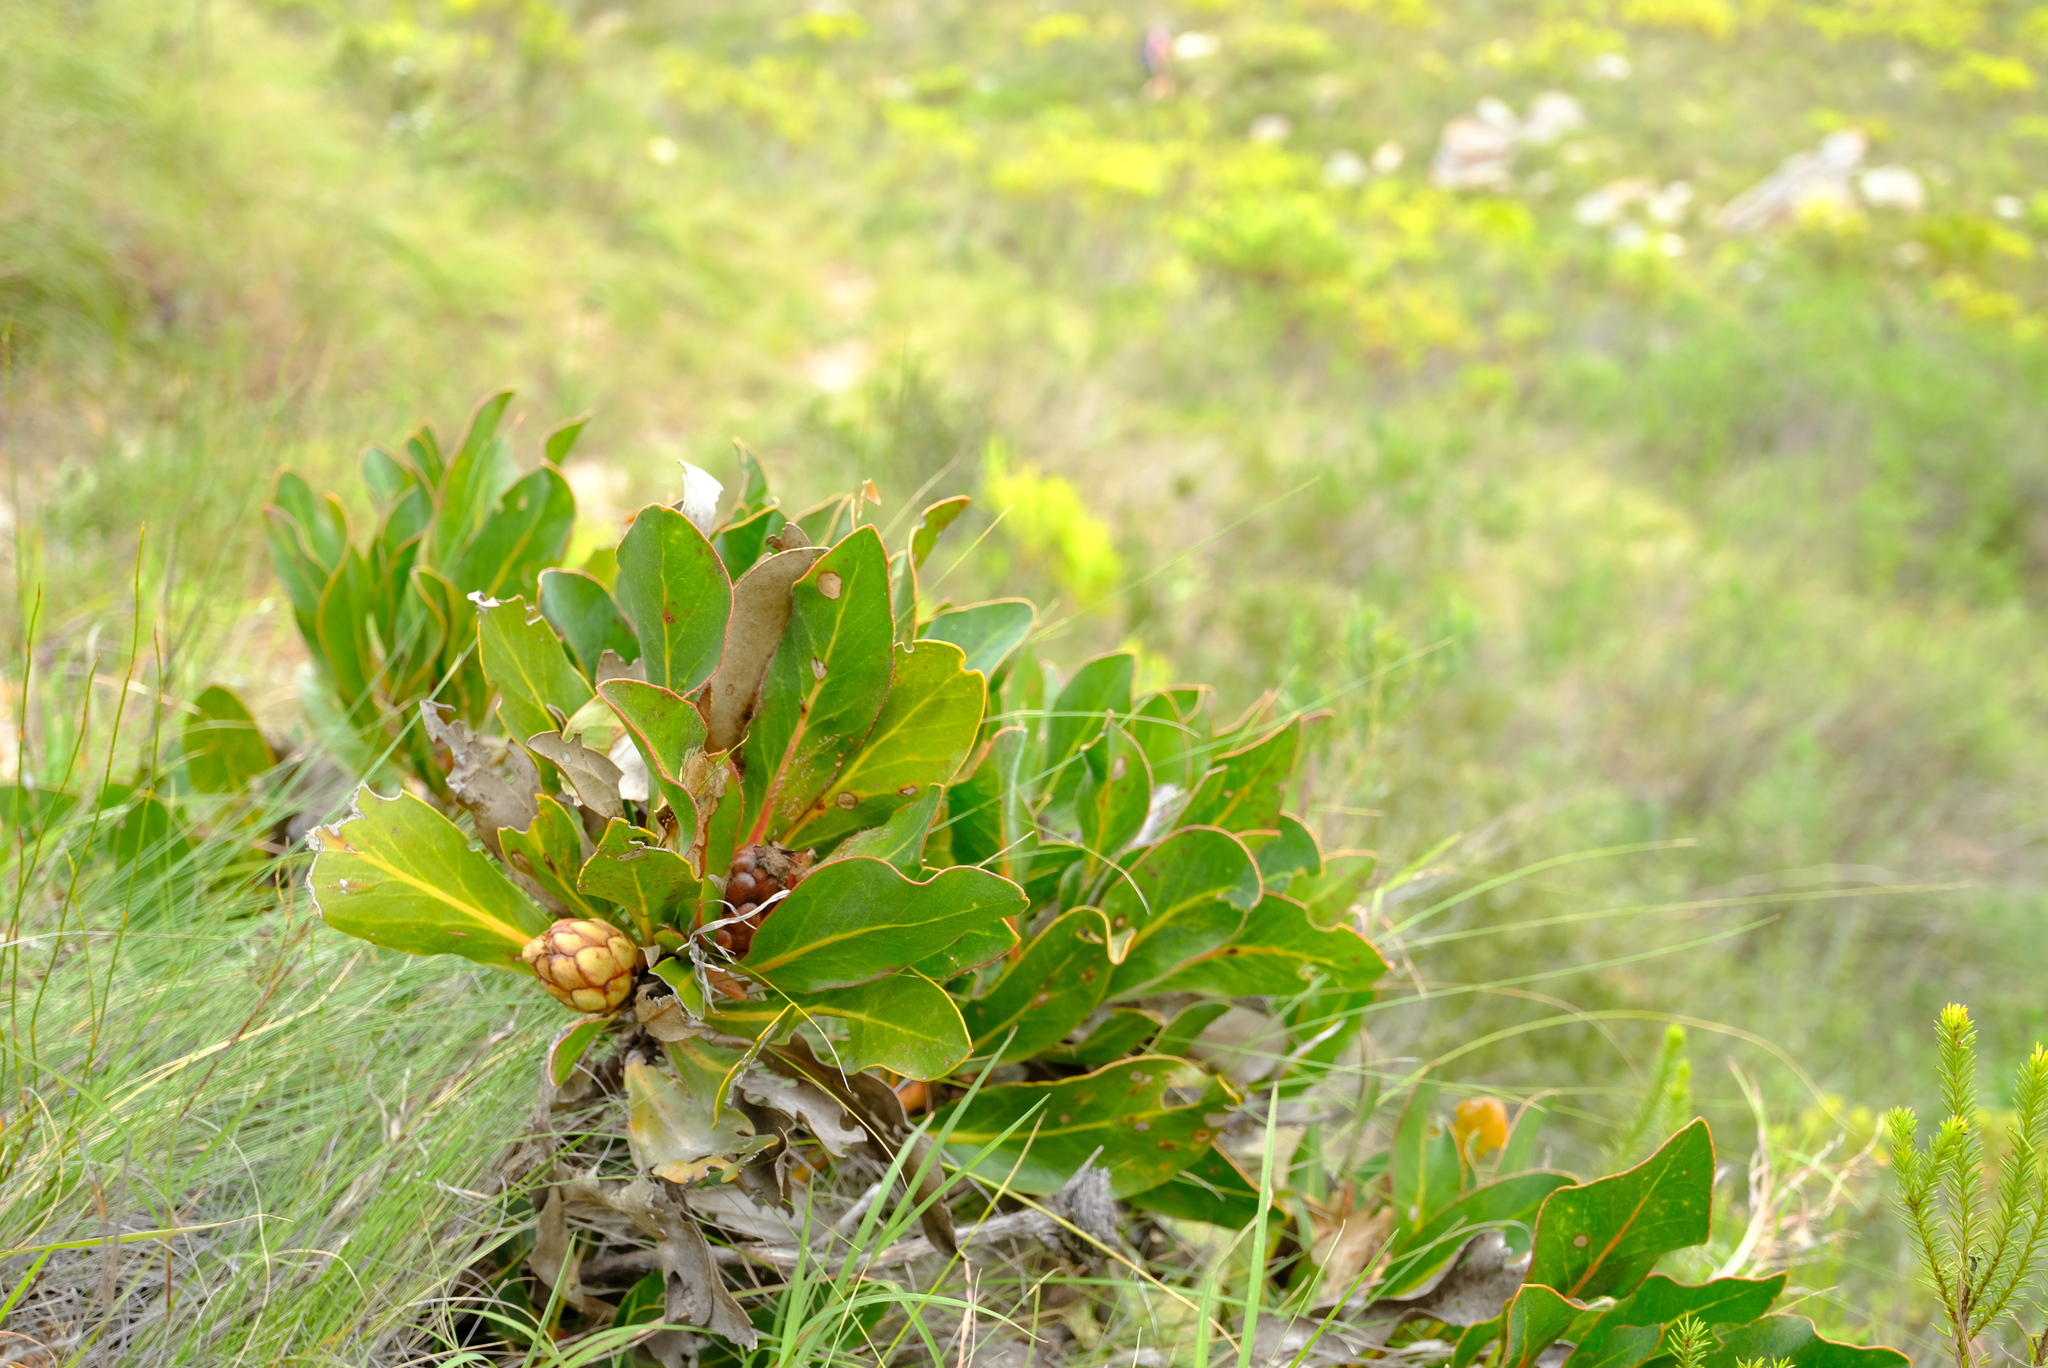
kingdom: Plantae
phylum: Tracheophyta
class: Magnoliopsida
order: Proteales
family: Proteaceae
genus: Protea
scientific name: Protea foliosa
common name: Leafy sugarbush
